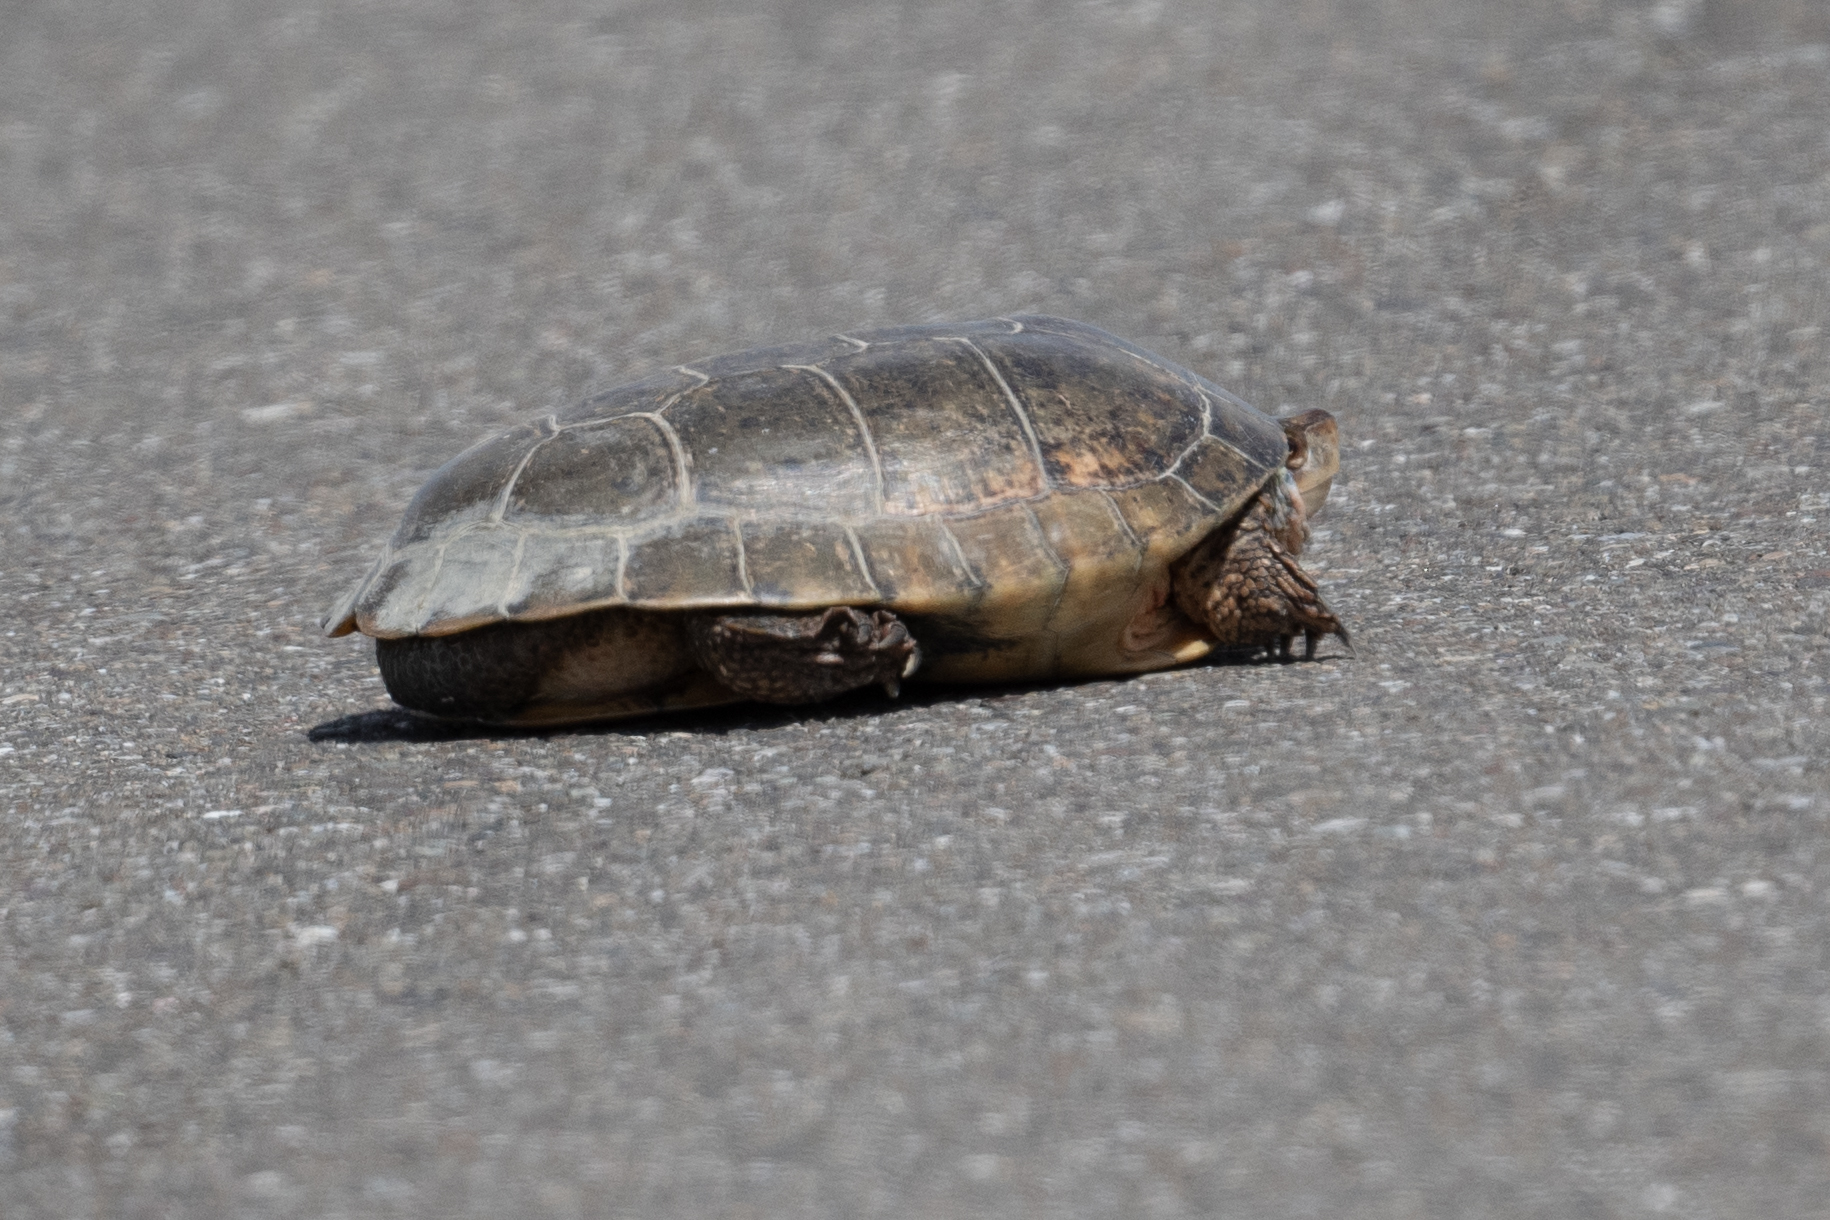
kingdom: Animalia
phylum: Chordata
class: Testudines
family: Emydidae
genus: Actinemys
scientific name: Actinemys marmorata
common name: Western pond turtle
